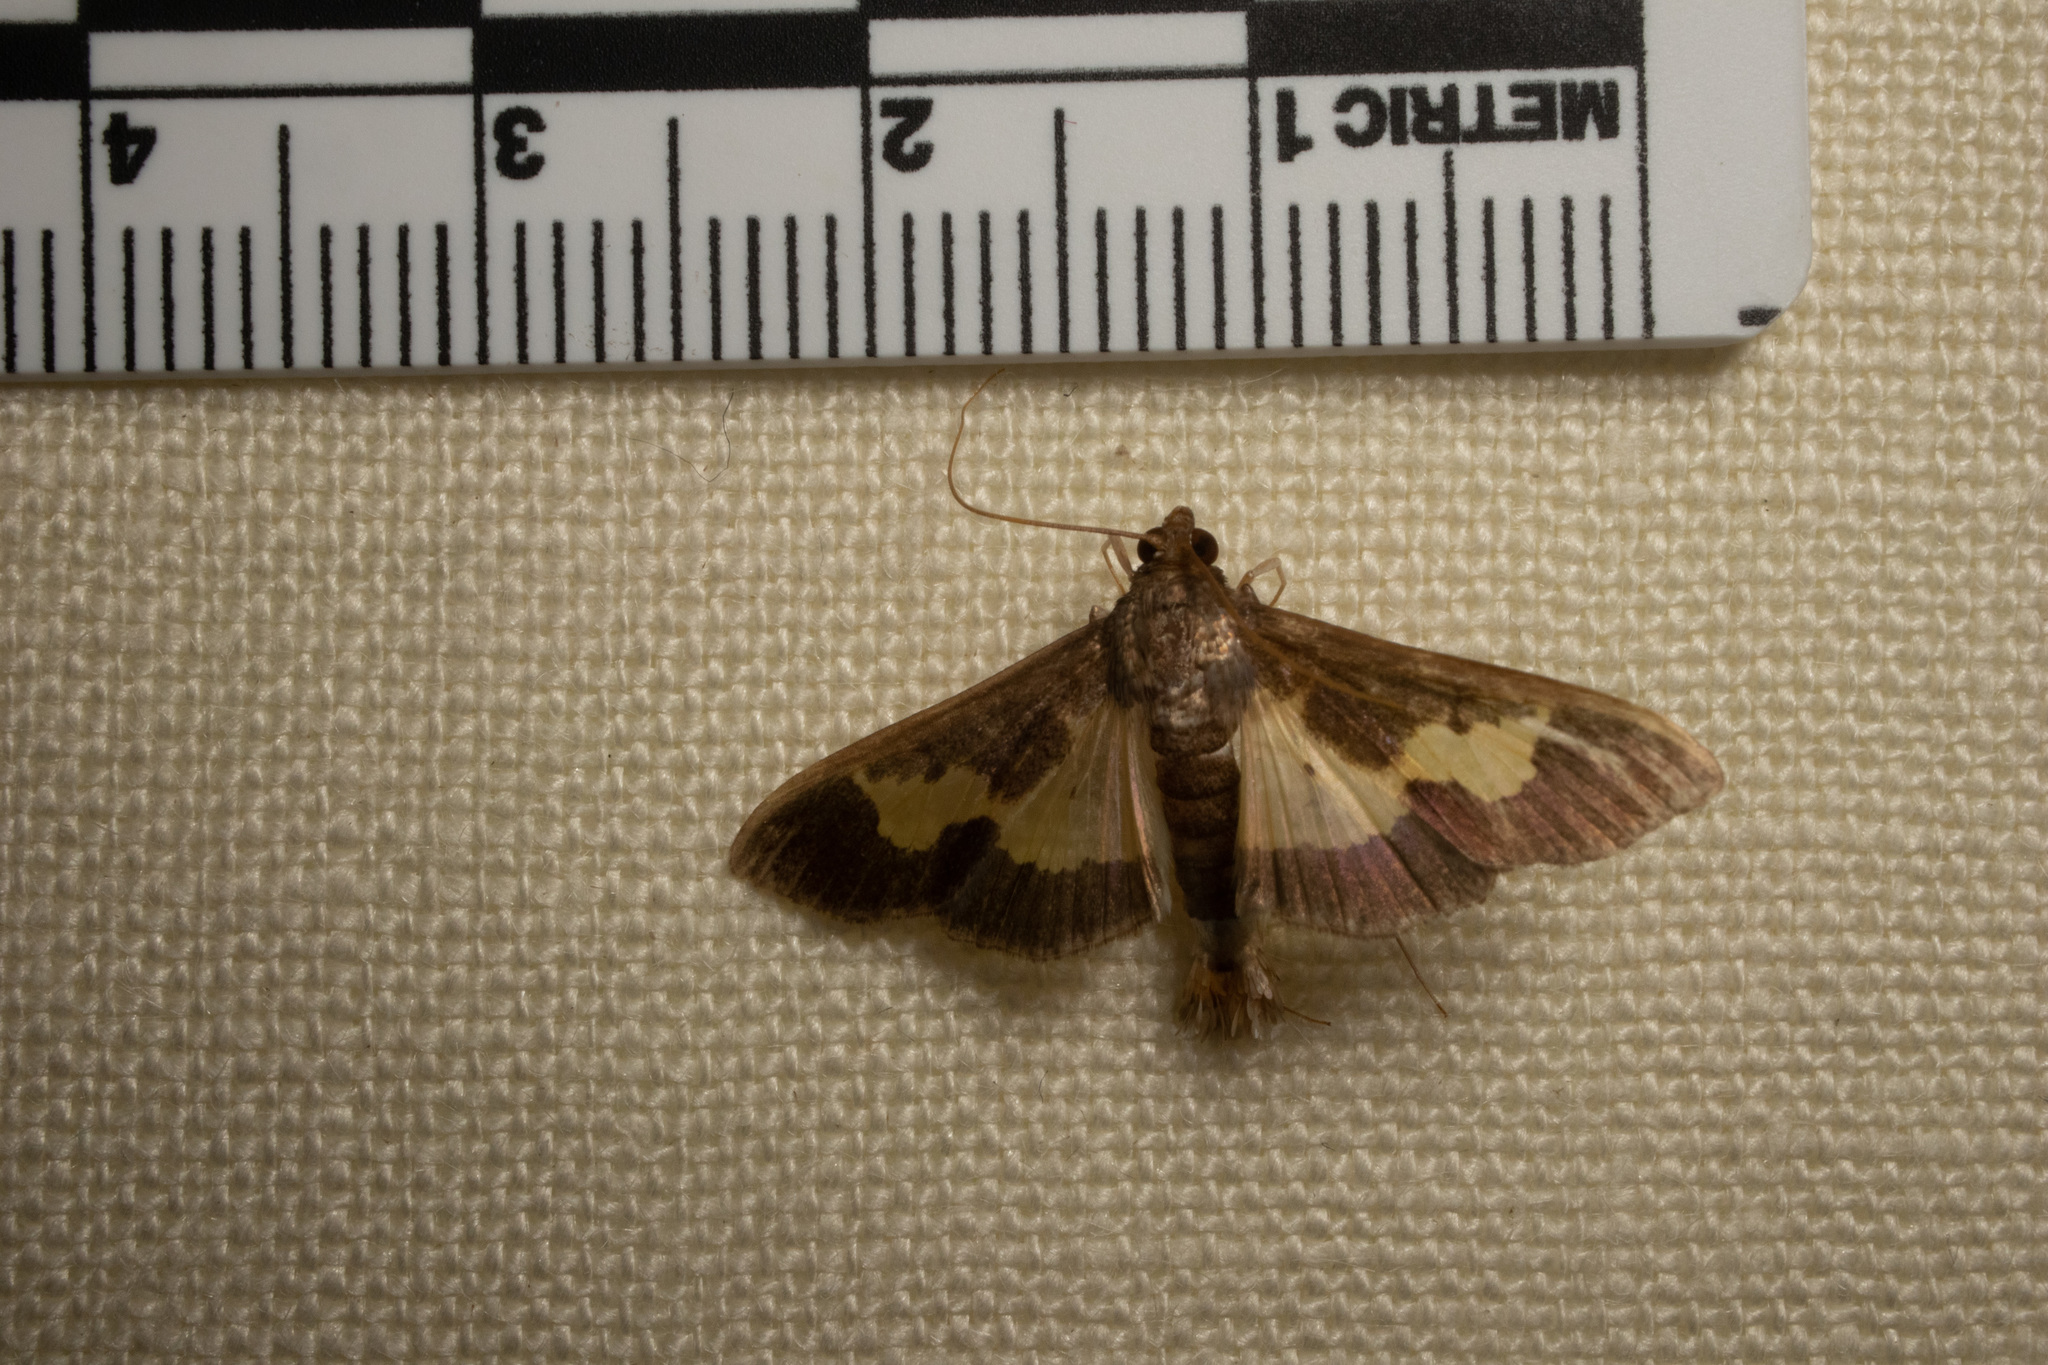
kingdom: Animalia
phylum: Arthropoda
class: Insecta
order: Lepidoptera
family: Crambidae
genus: Cryptographis
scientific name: Cryptographis nitidalis
